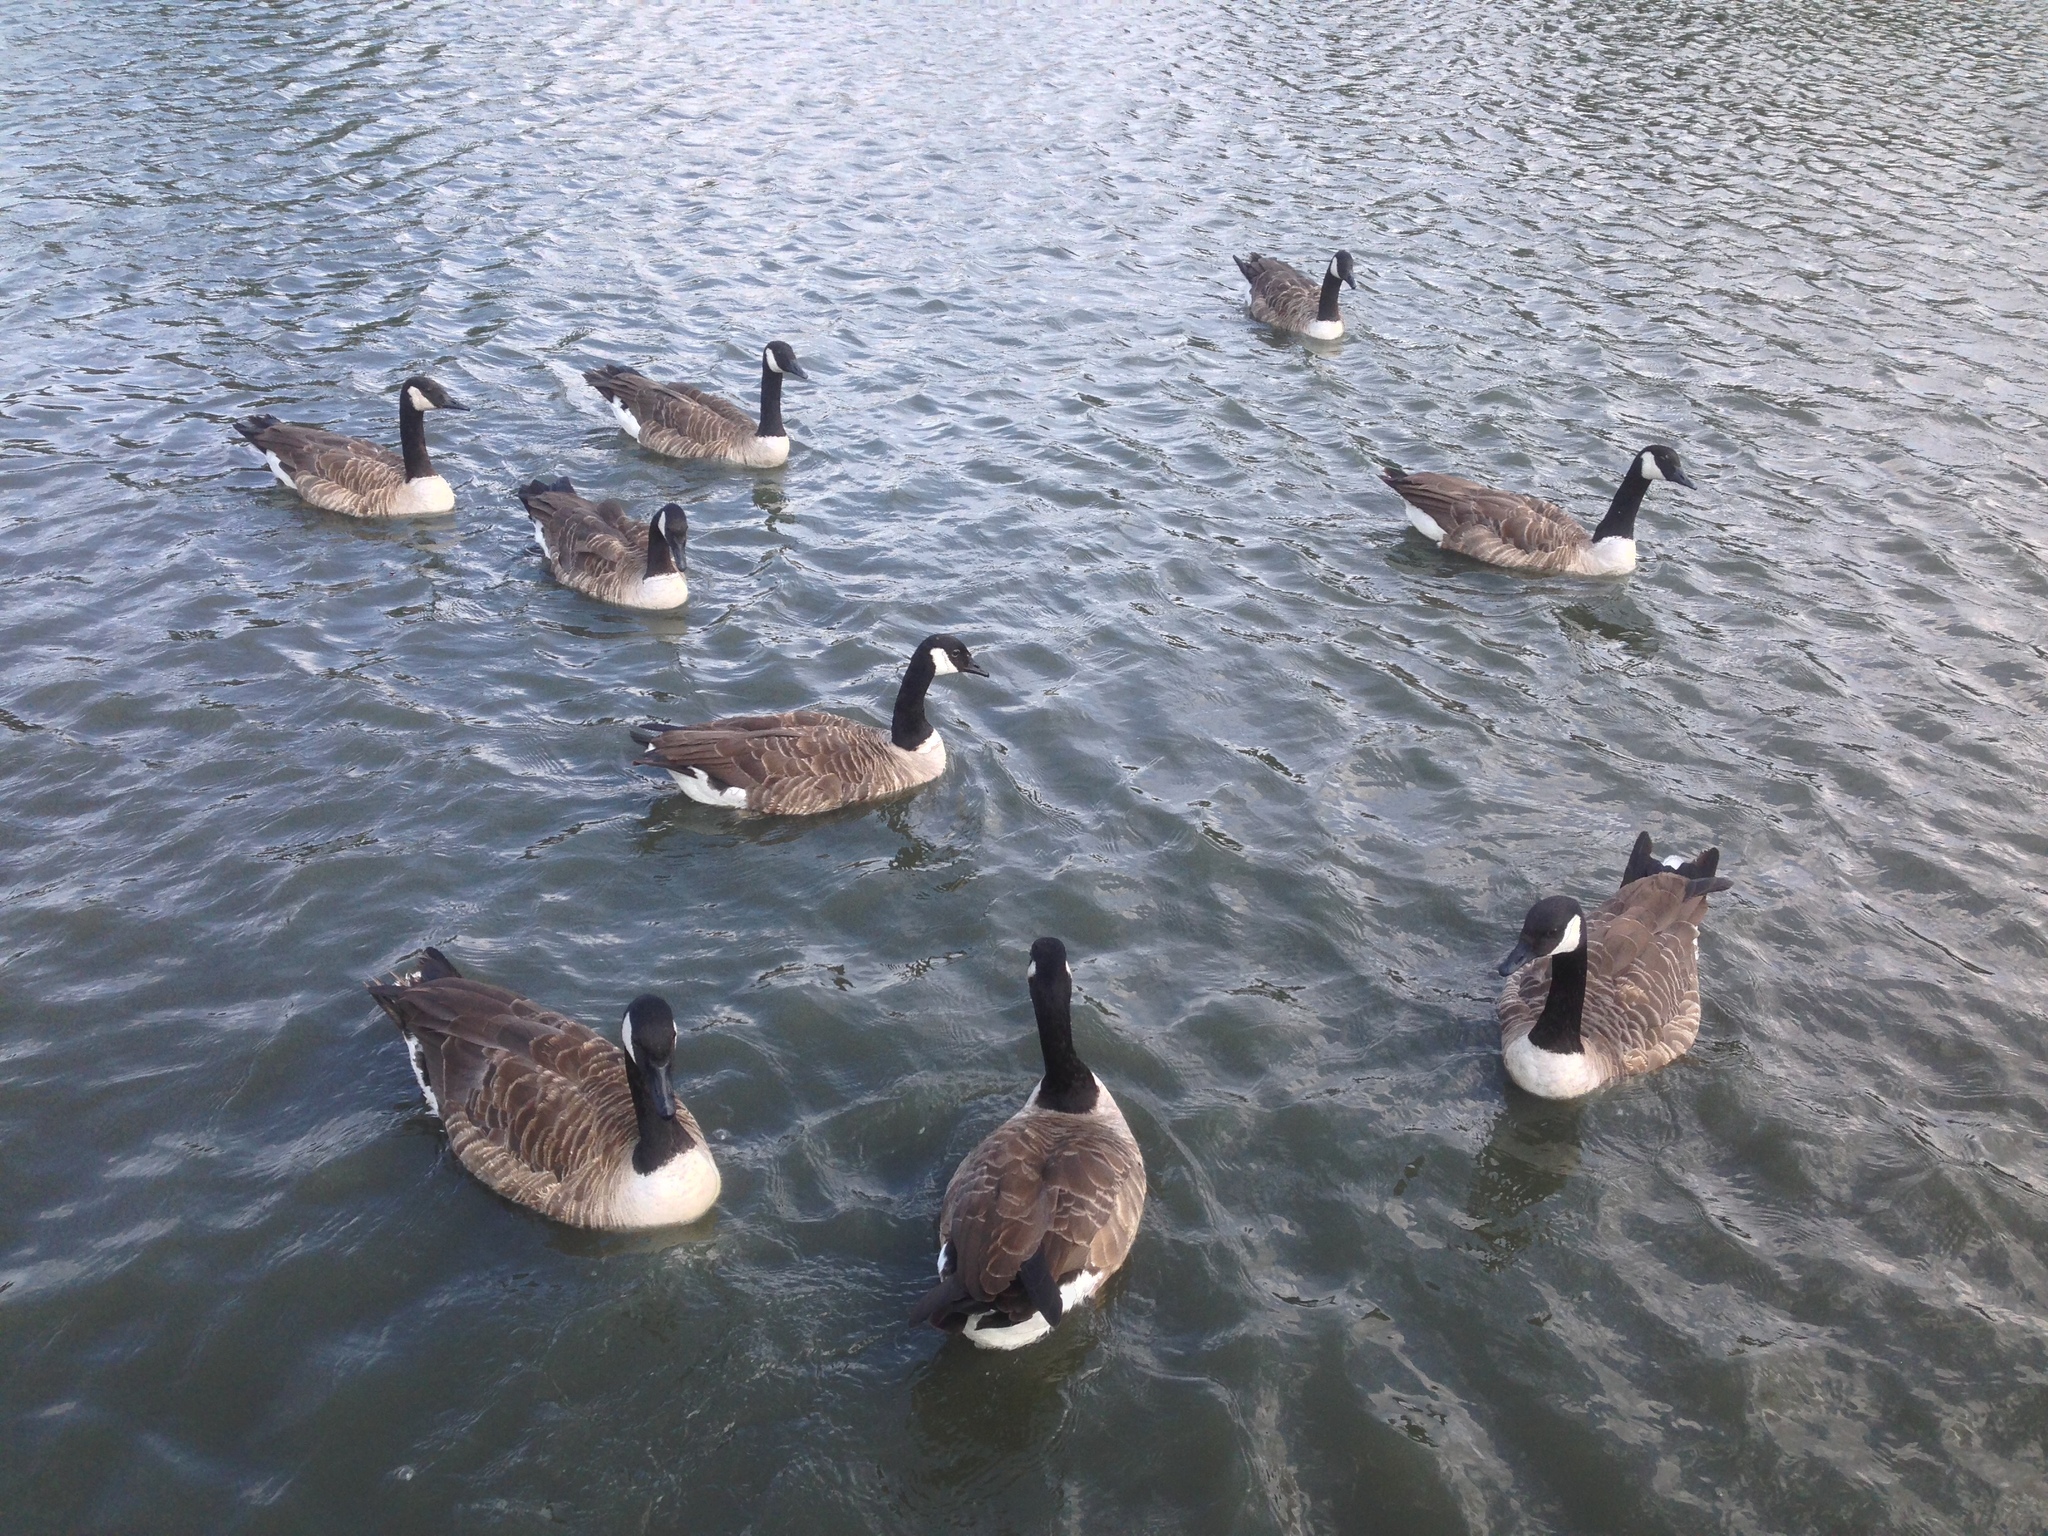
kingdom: Animalia
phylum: Chordata
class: Aves
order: Anseriformes
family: Anatidae
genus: Branta
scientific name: Branta canadensis
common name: Canada goose
